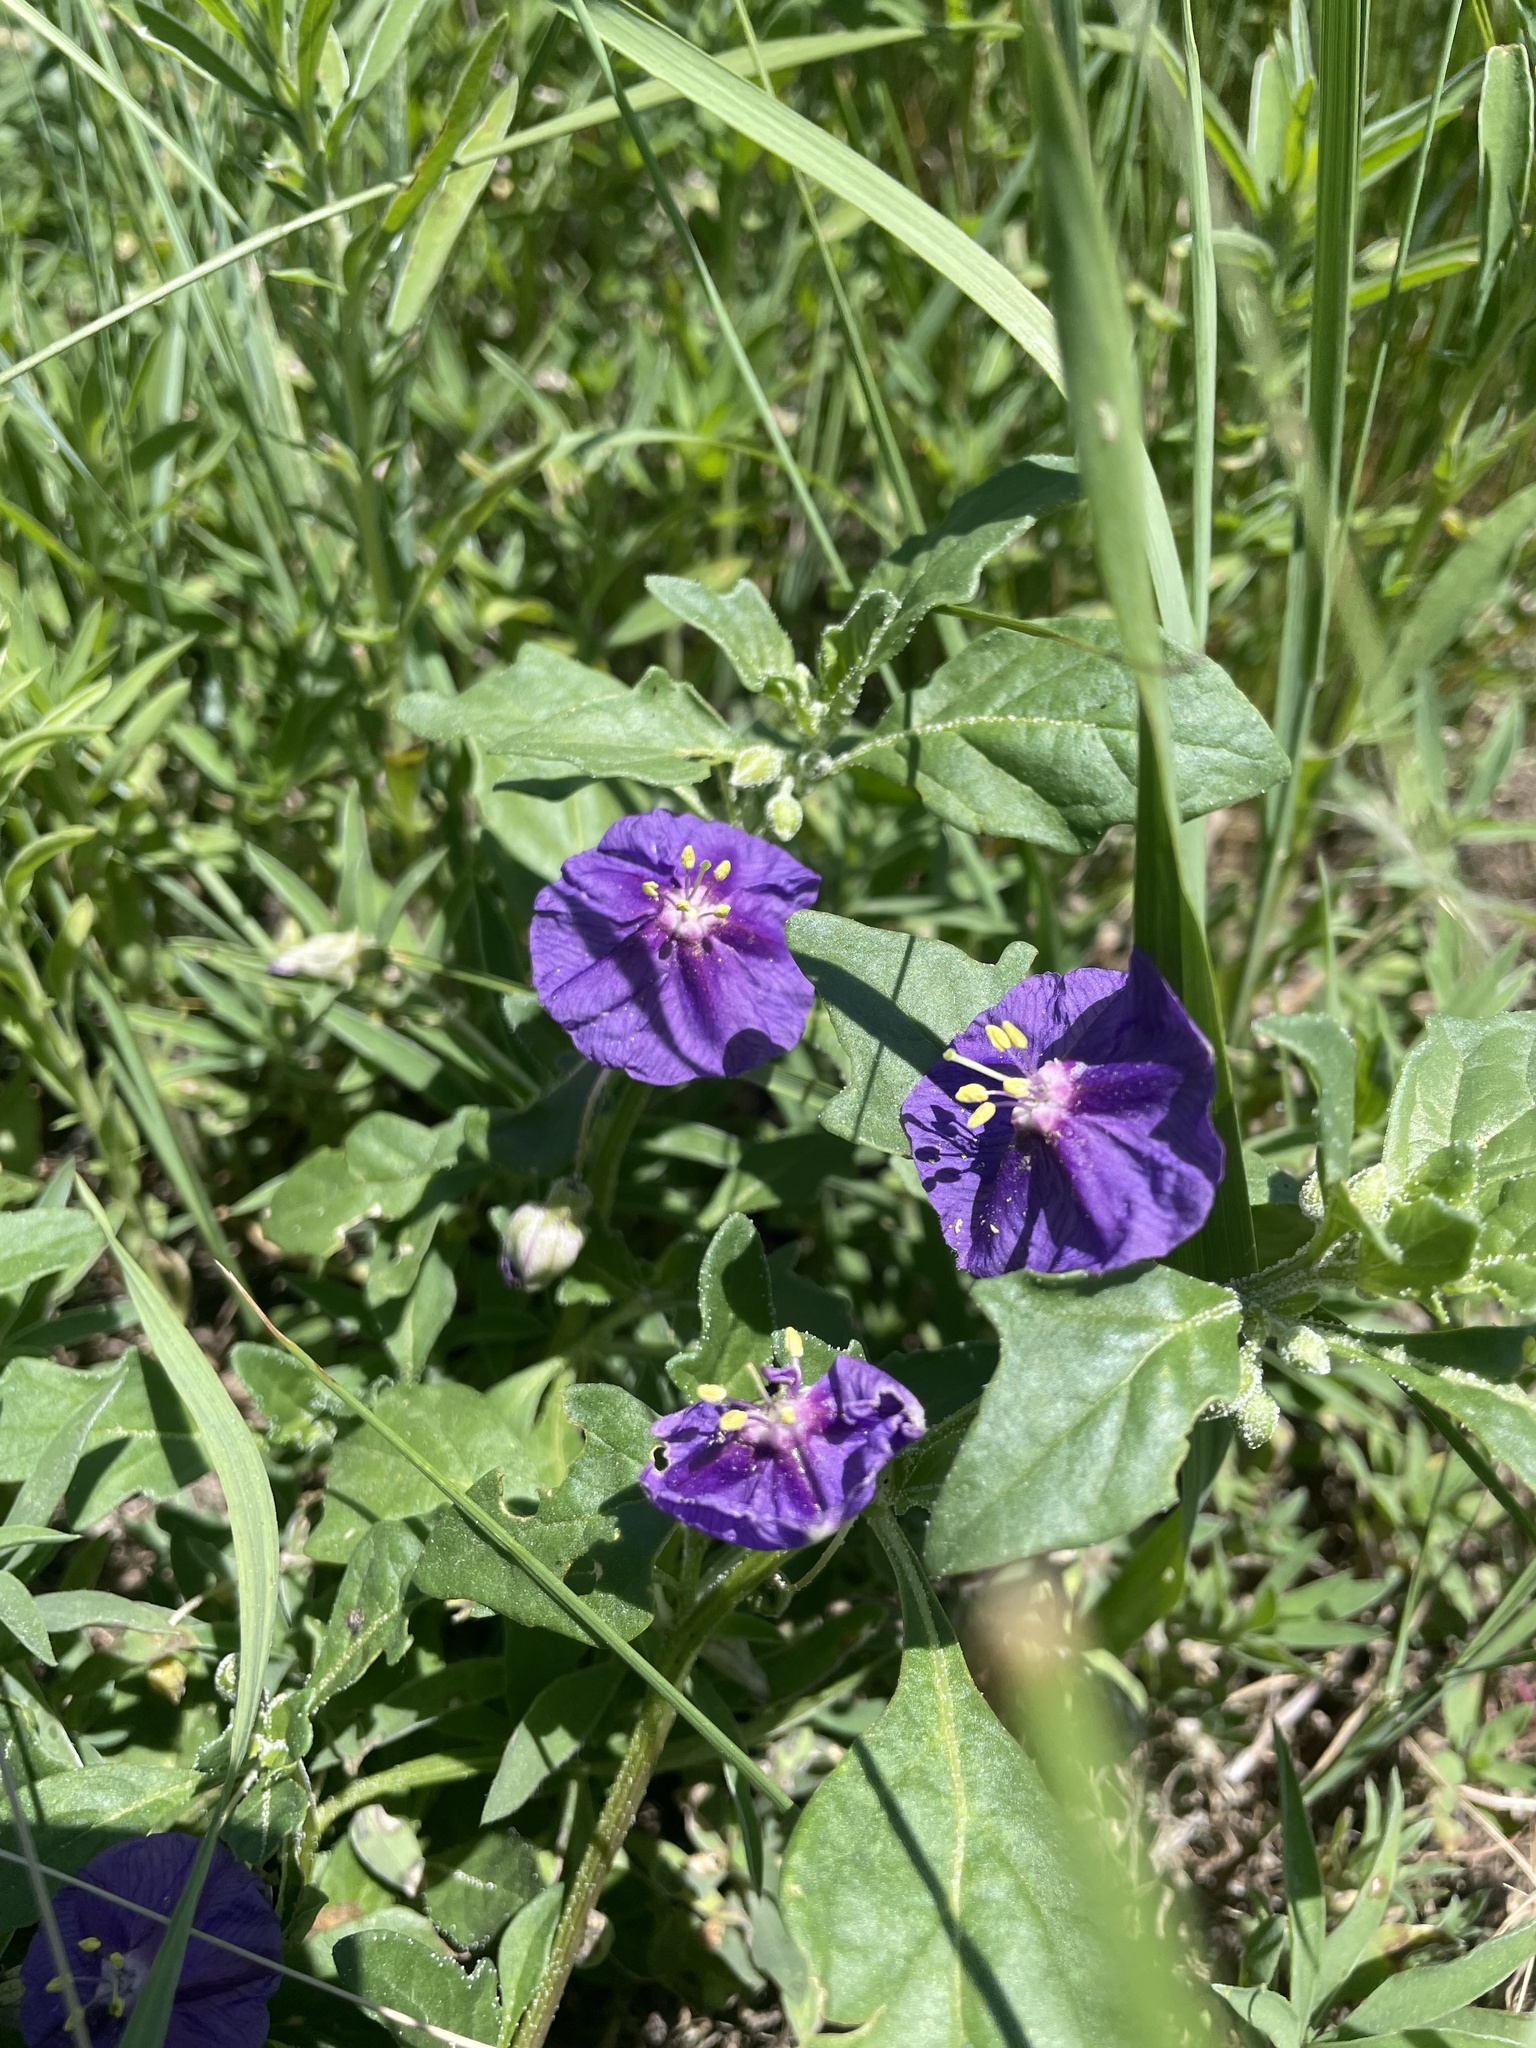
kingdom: Plantae
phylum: Tracheophyta
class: Magnoliopsida
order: Solanales
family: Solanaceae
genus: Quincula
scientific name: Quincula lobata
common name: Purple-ground-cherry
